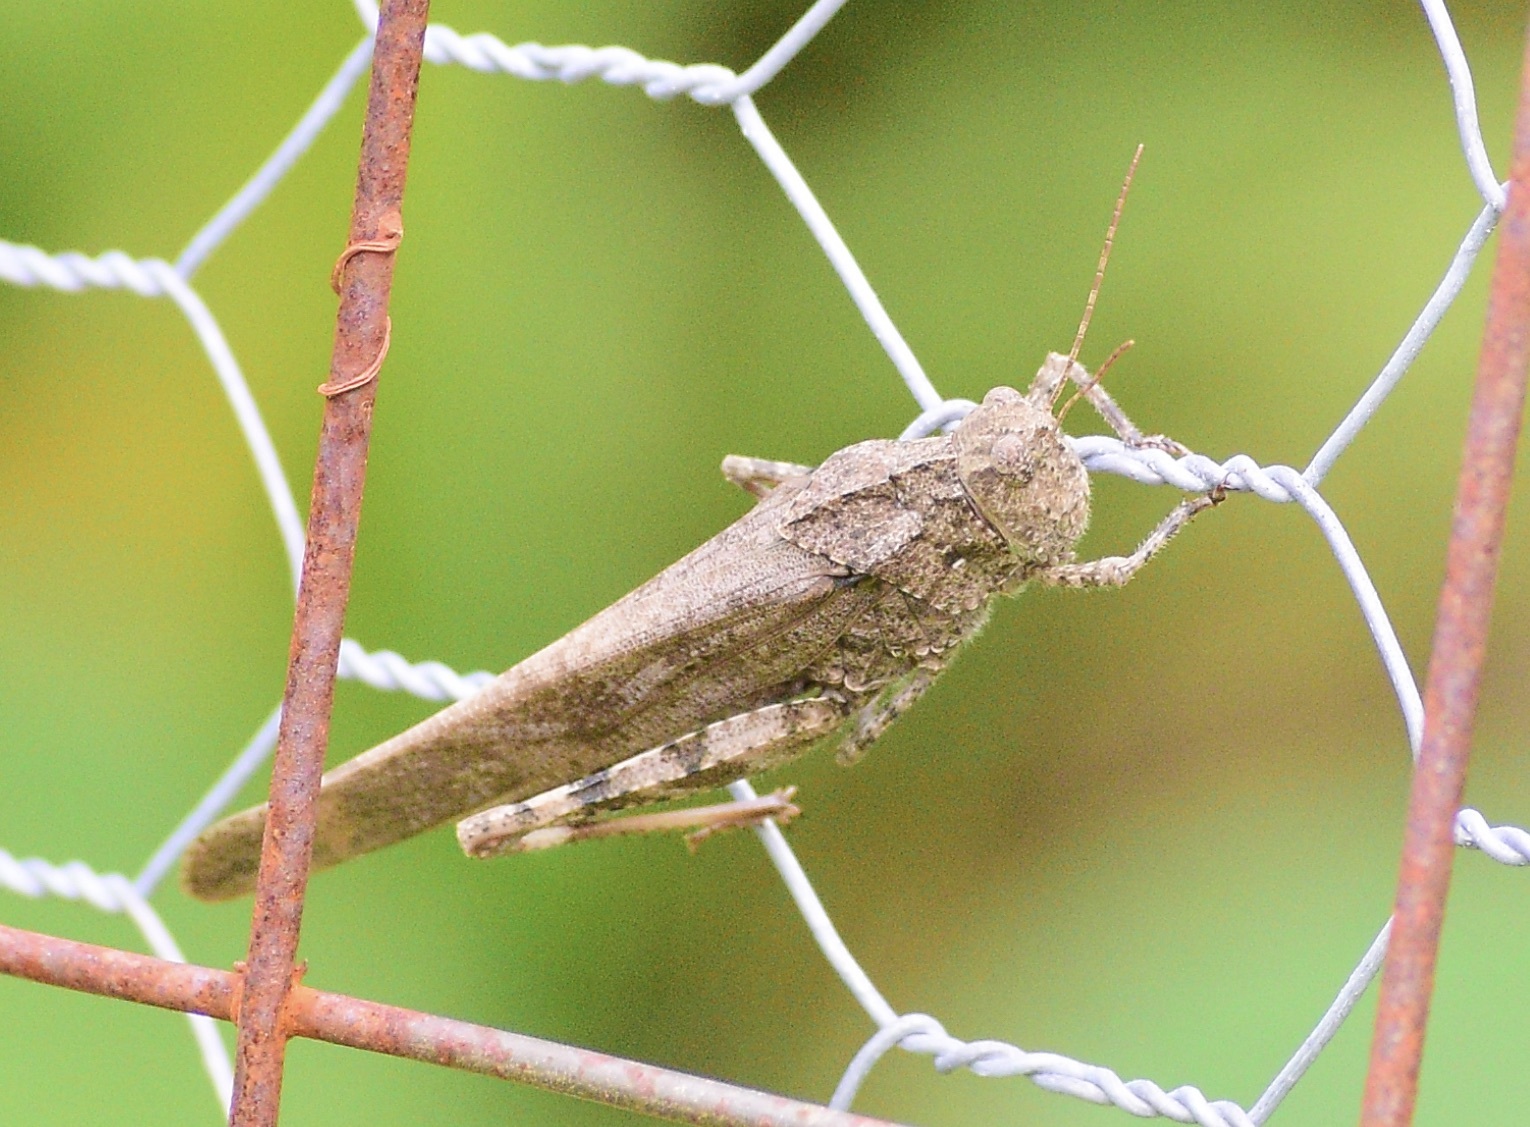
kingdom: Animalia
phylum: Arthropoda
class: Insecta
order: Orthoptera
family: Acrididae
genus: Dissosteira
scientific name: Dissosteira carolina
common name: Carolina grasshopper
